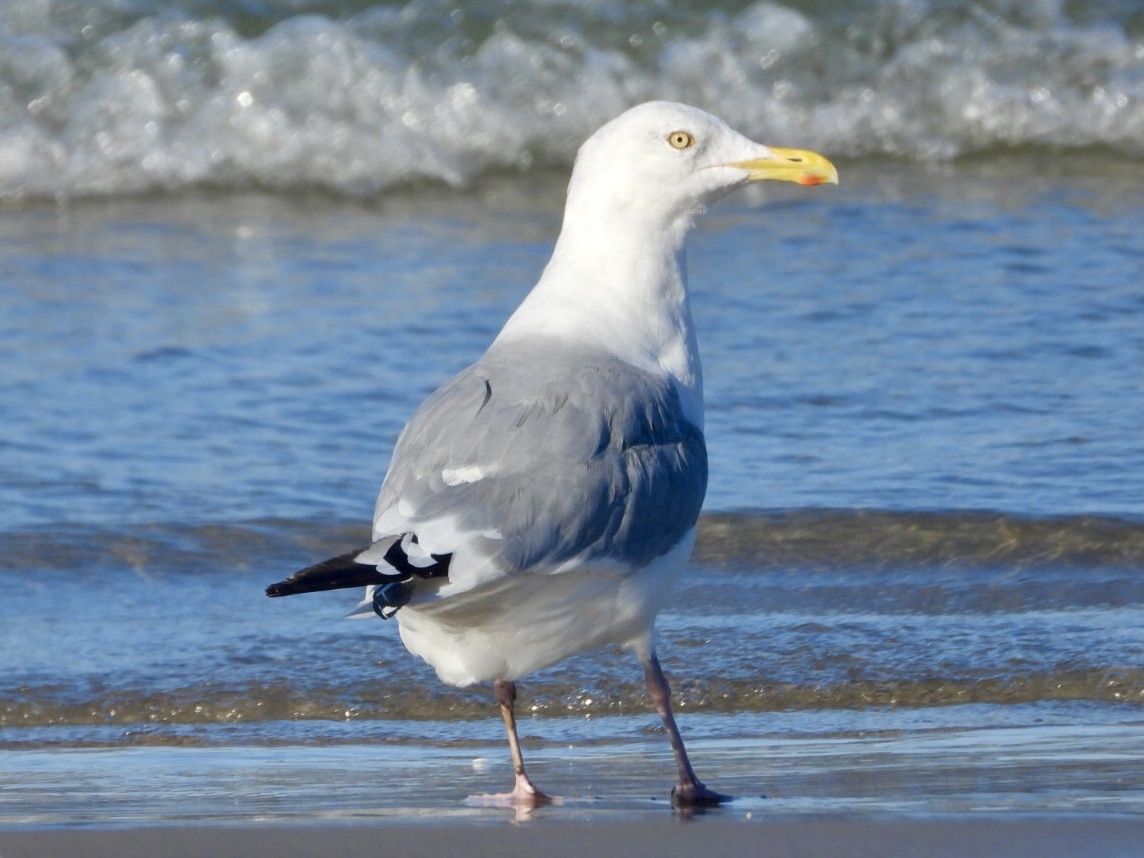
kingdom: Animalia
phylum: Chordata
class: Aves
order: Charadriiformes
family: Laridae
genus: Larus
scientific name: Larus argentatus
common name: Herring gull
